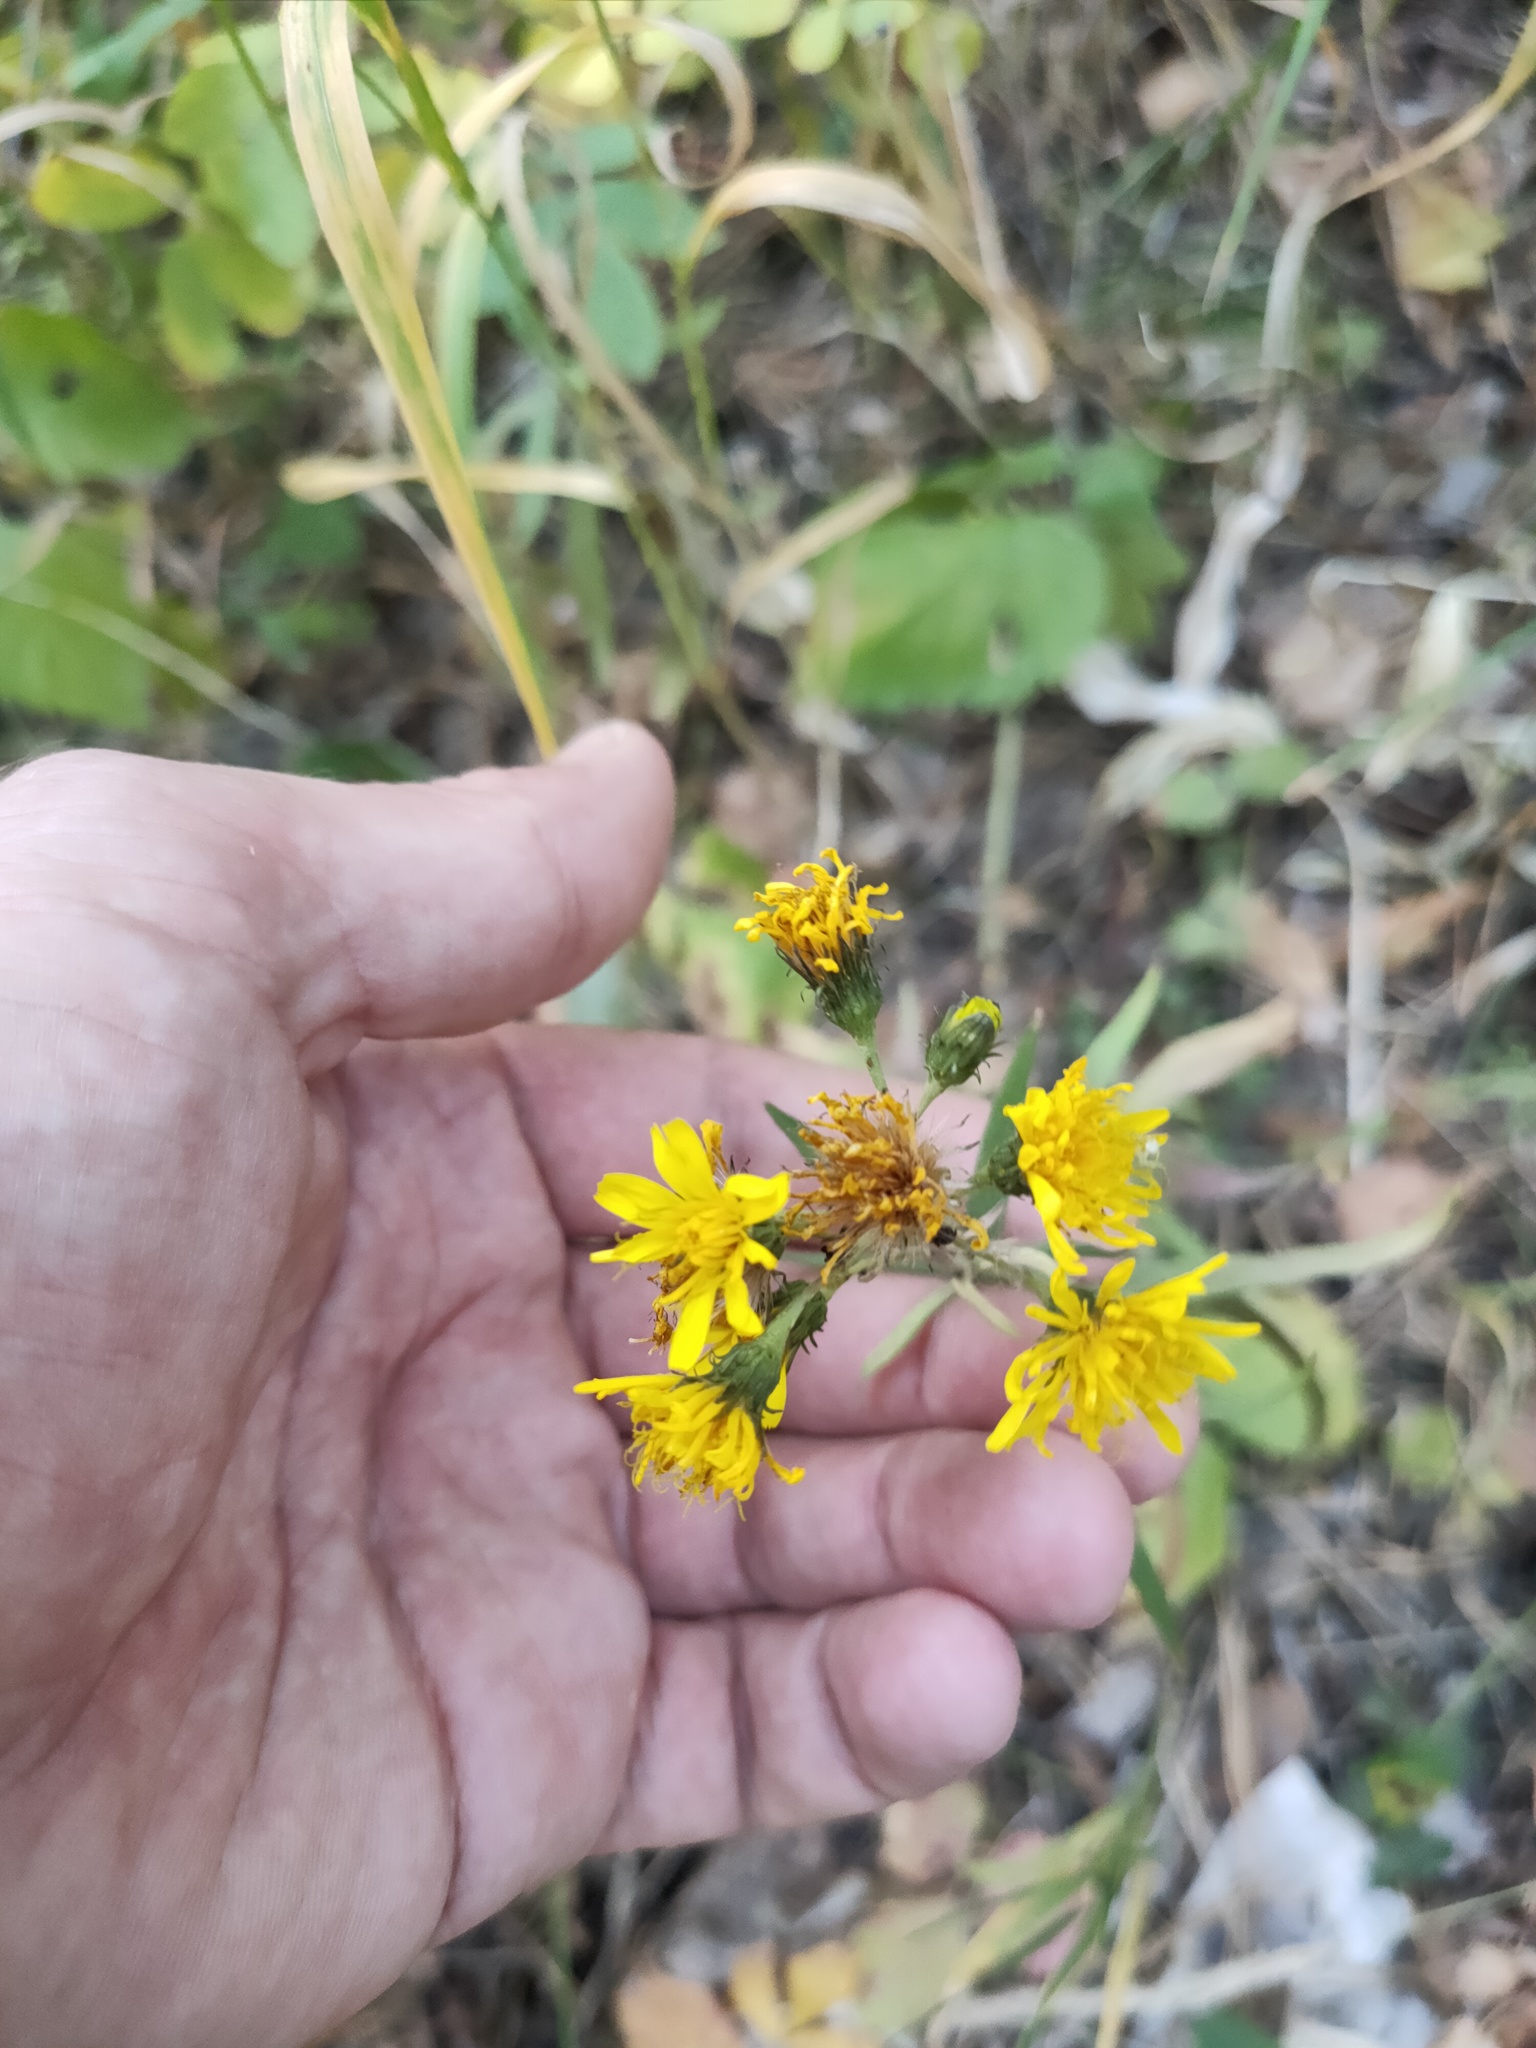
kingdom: Plantae
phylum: Tracheophyta
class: Magnoliopsida
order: Asterales
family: Asteraceae
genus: Hieracium
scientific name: Hieracium umbellatum
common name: Northern hawkweed
